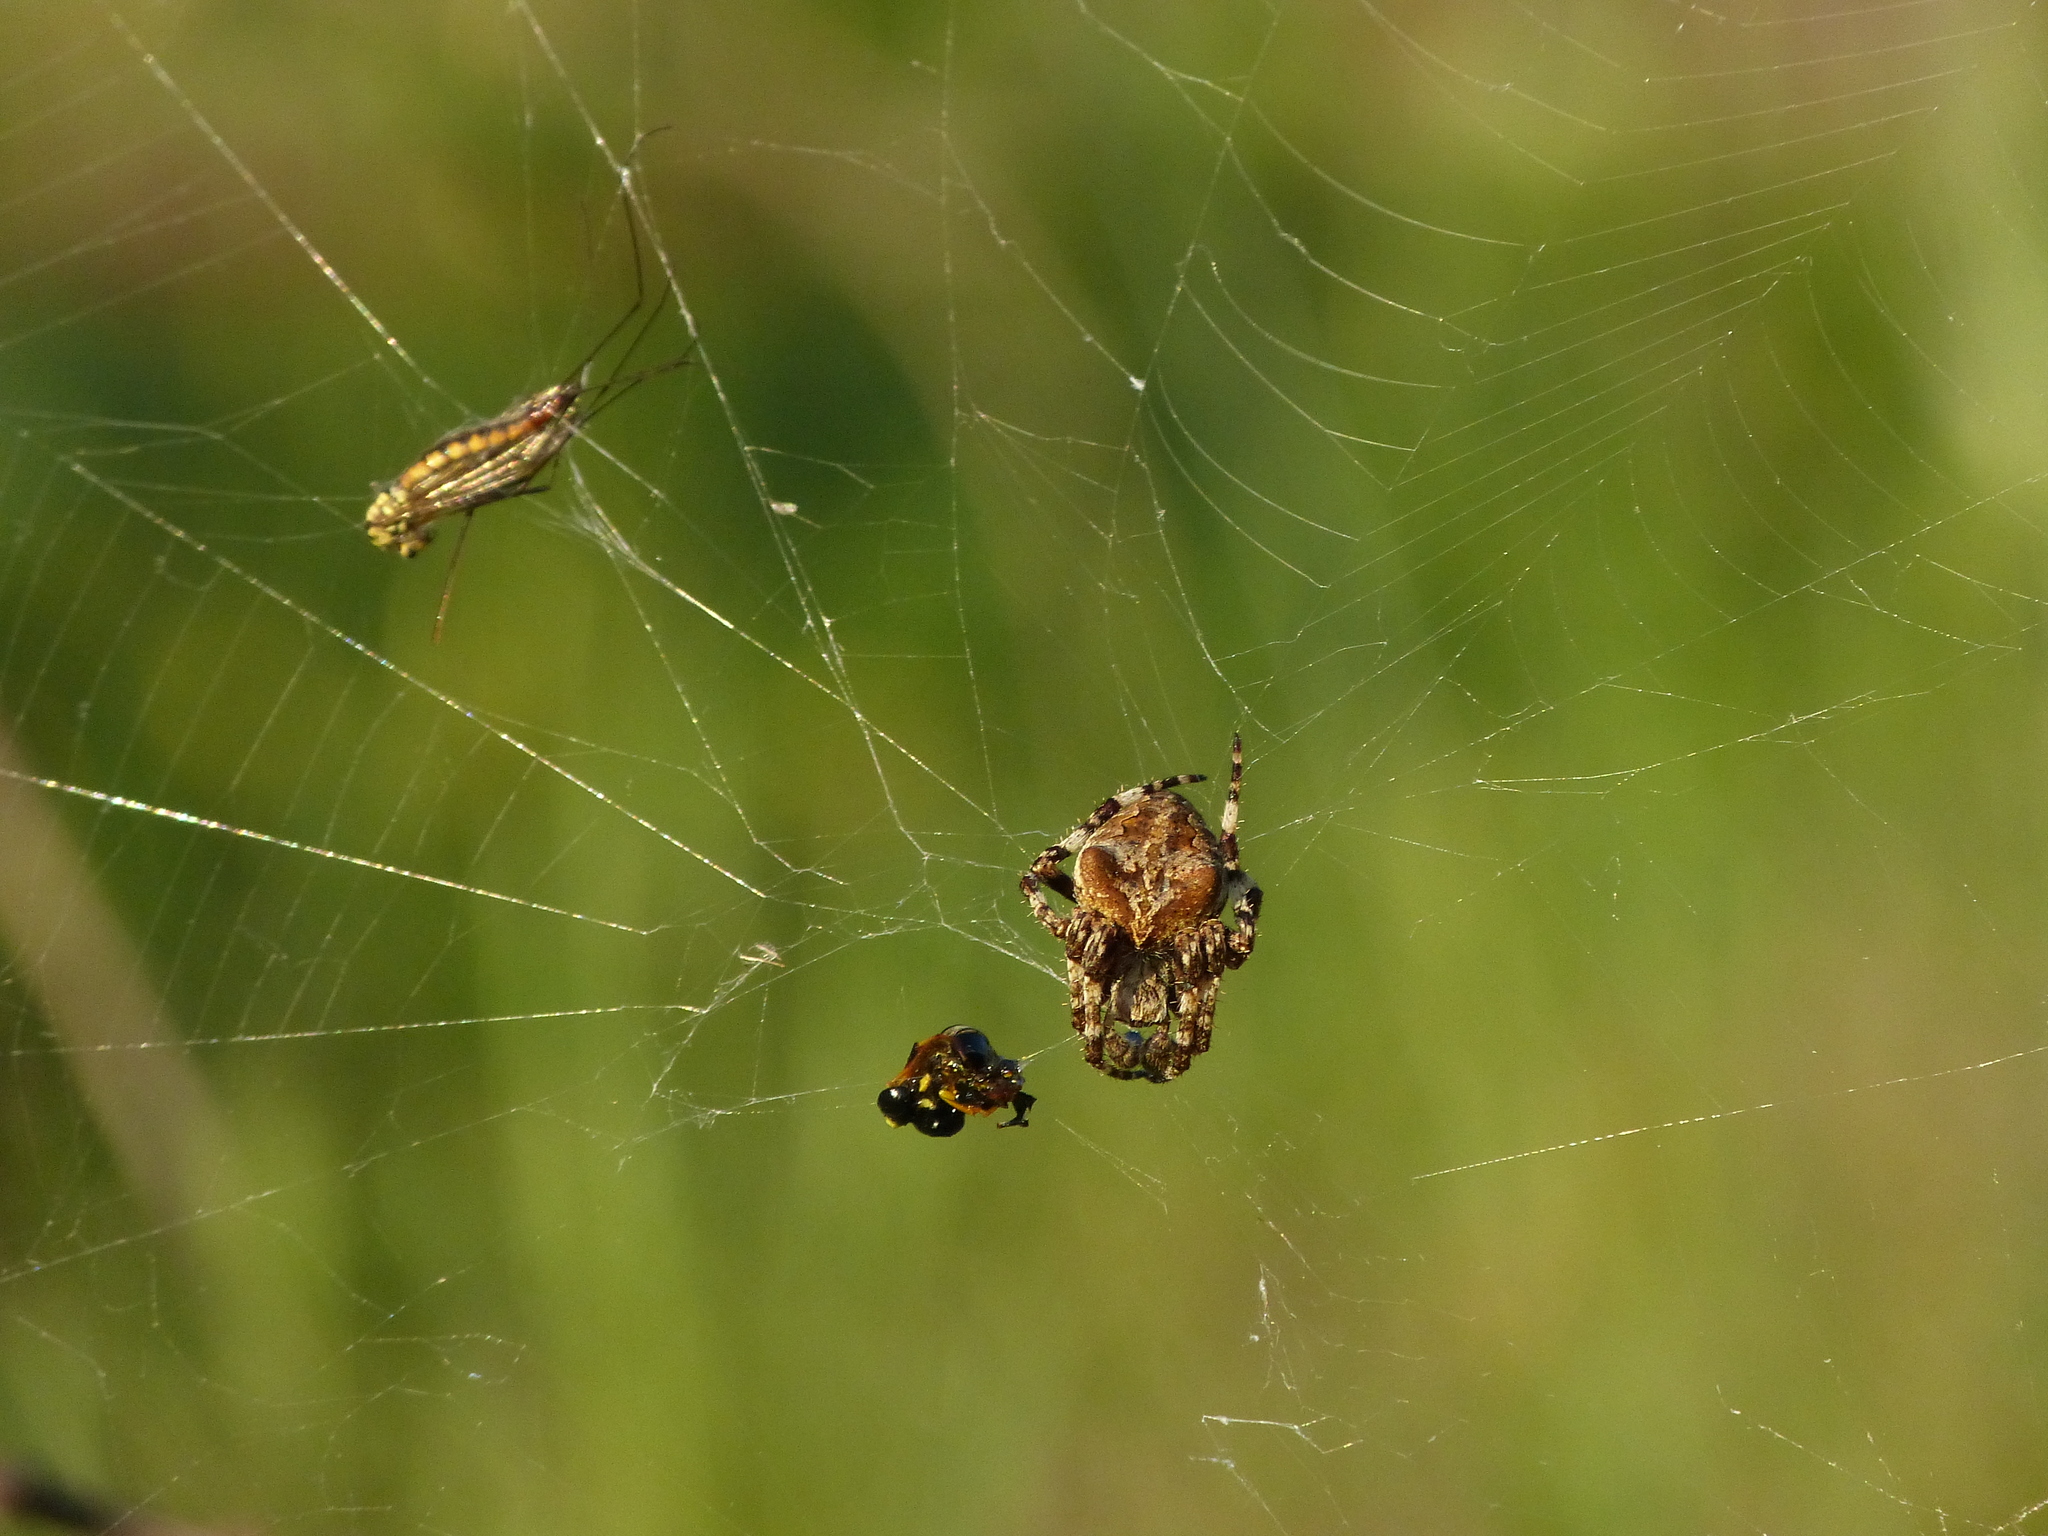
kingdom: Animalia
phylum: Arthropoda
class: Arachnida
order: Araneae
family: Araneidae
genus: Araneus
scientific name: Araneus angulatus
